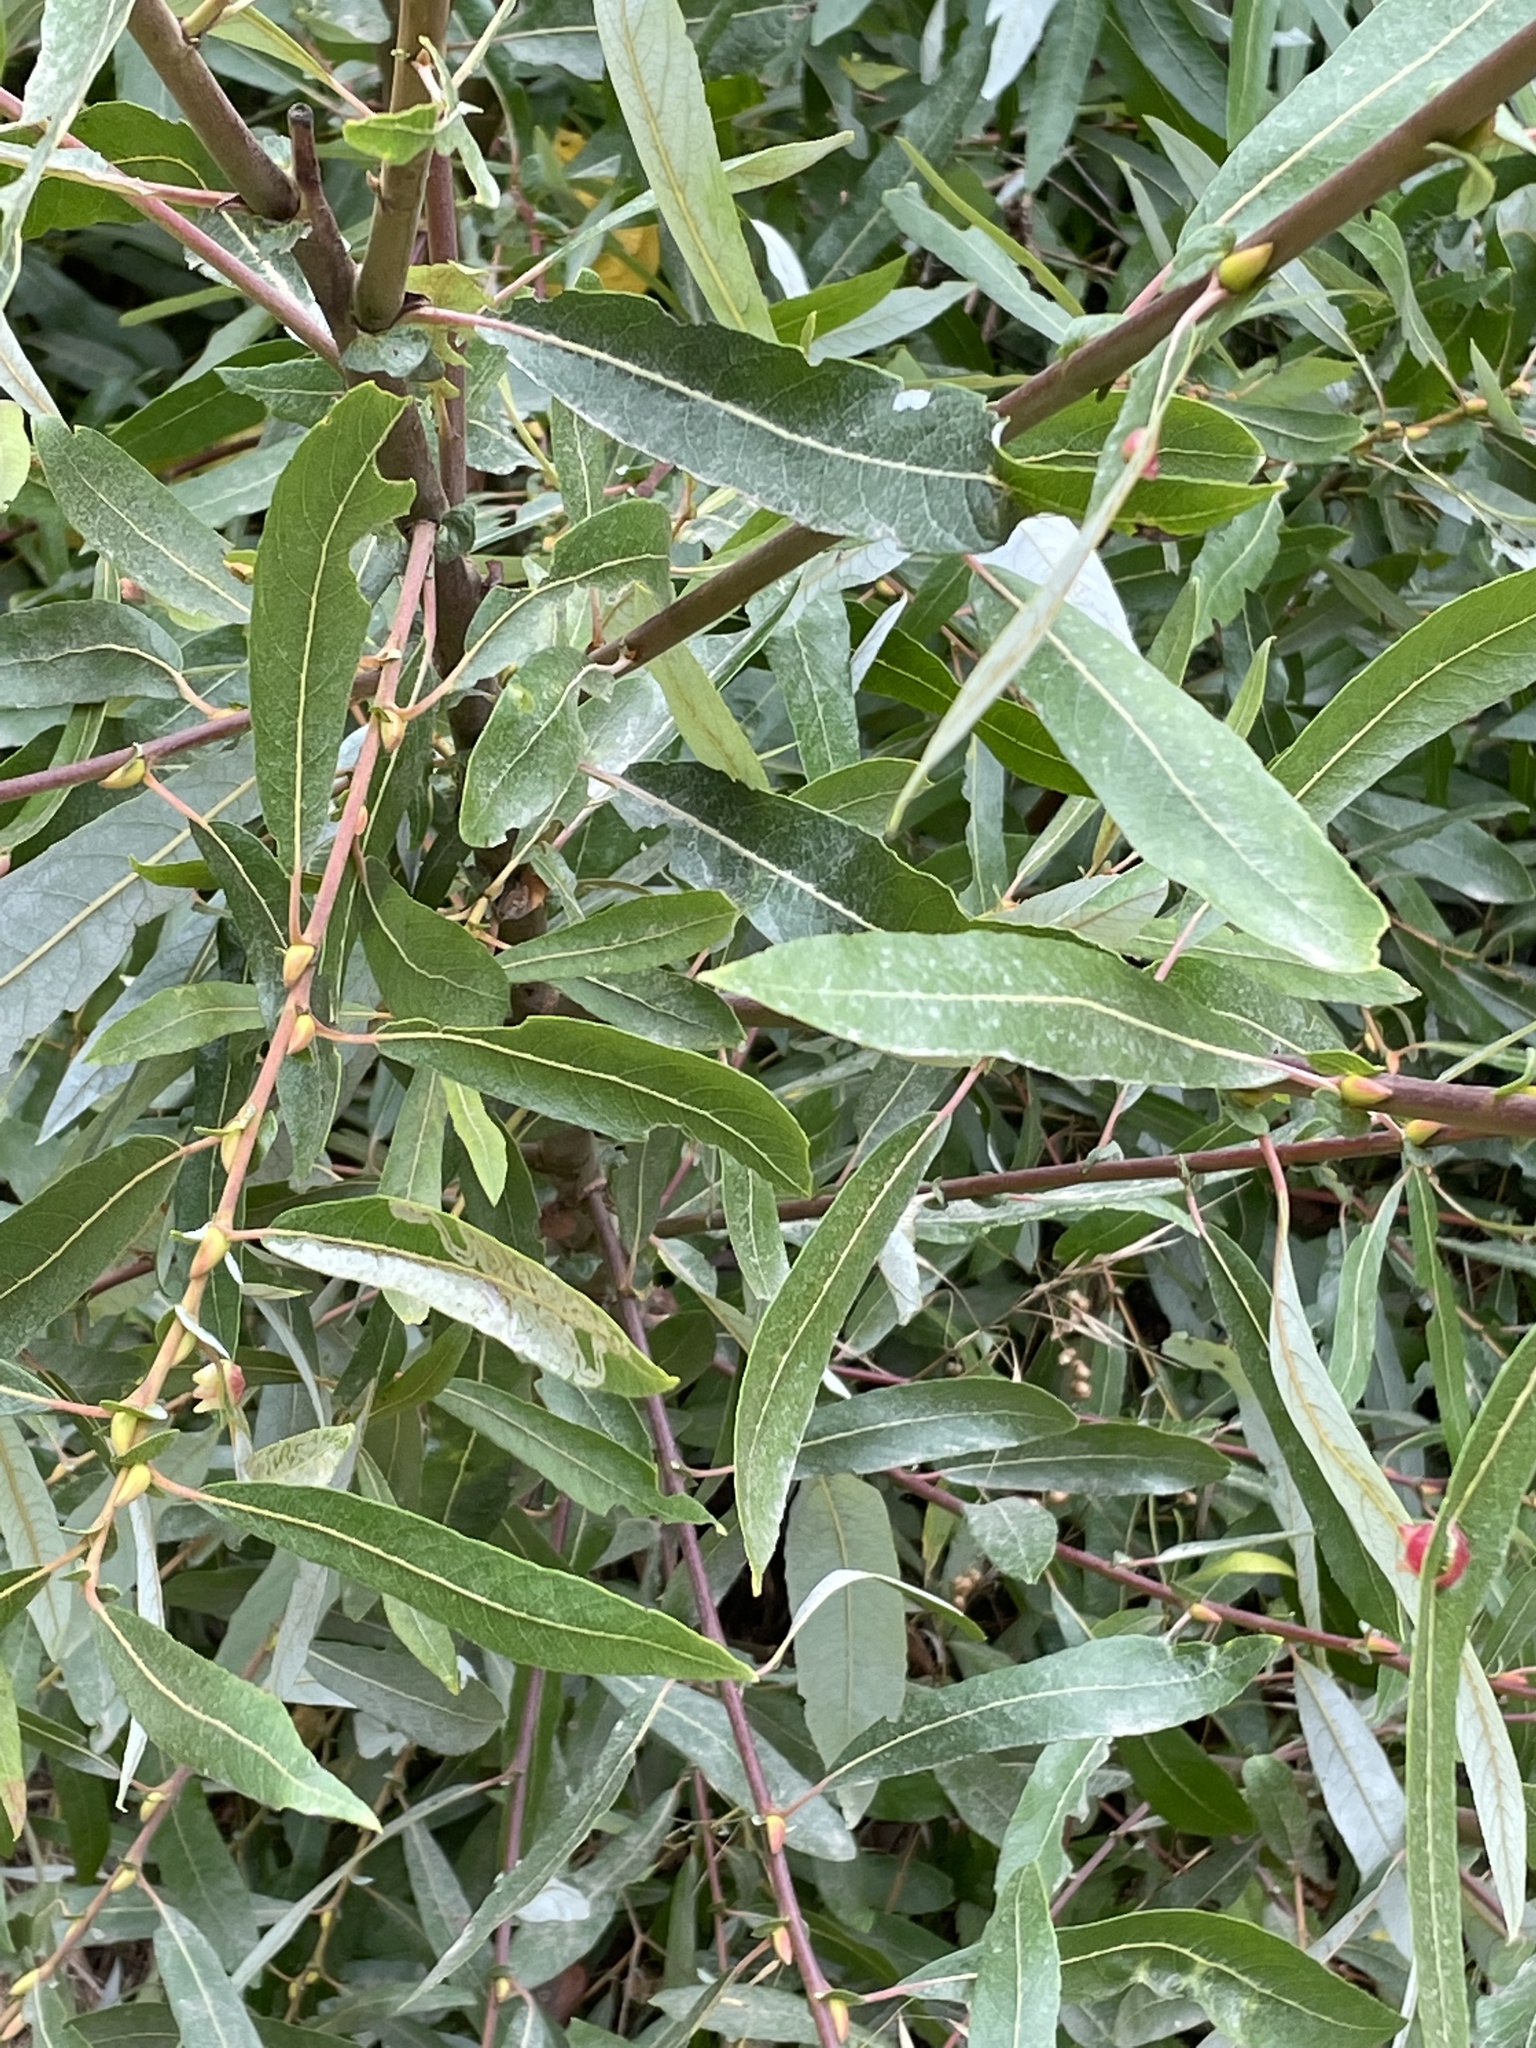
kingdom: Plantae
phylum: Tracheophyta
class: Magnoliopsida
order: Malpighiales
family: Salicaceae
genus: Salix
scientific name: Salix lasiolepis
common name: Arroyo willow
